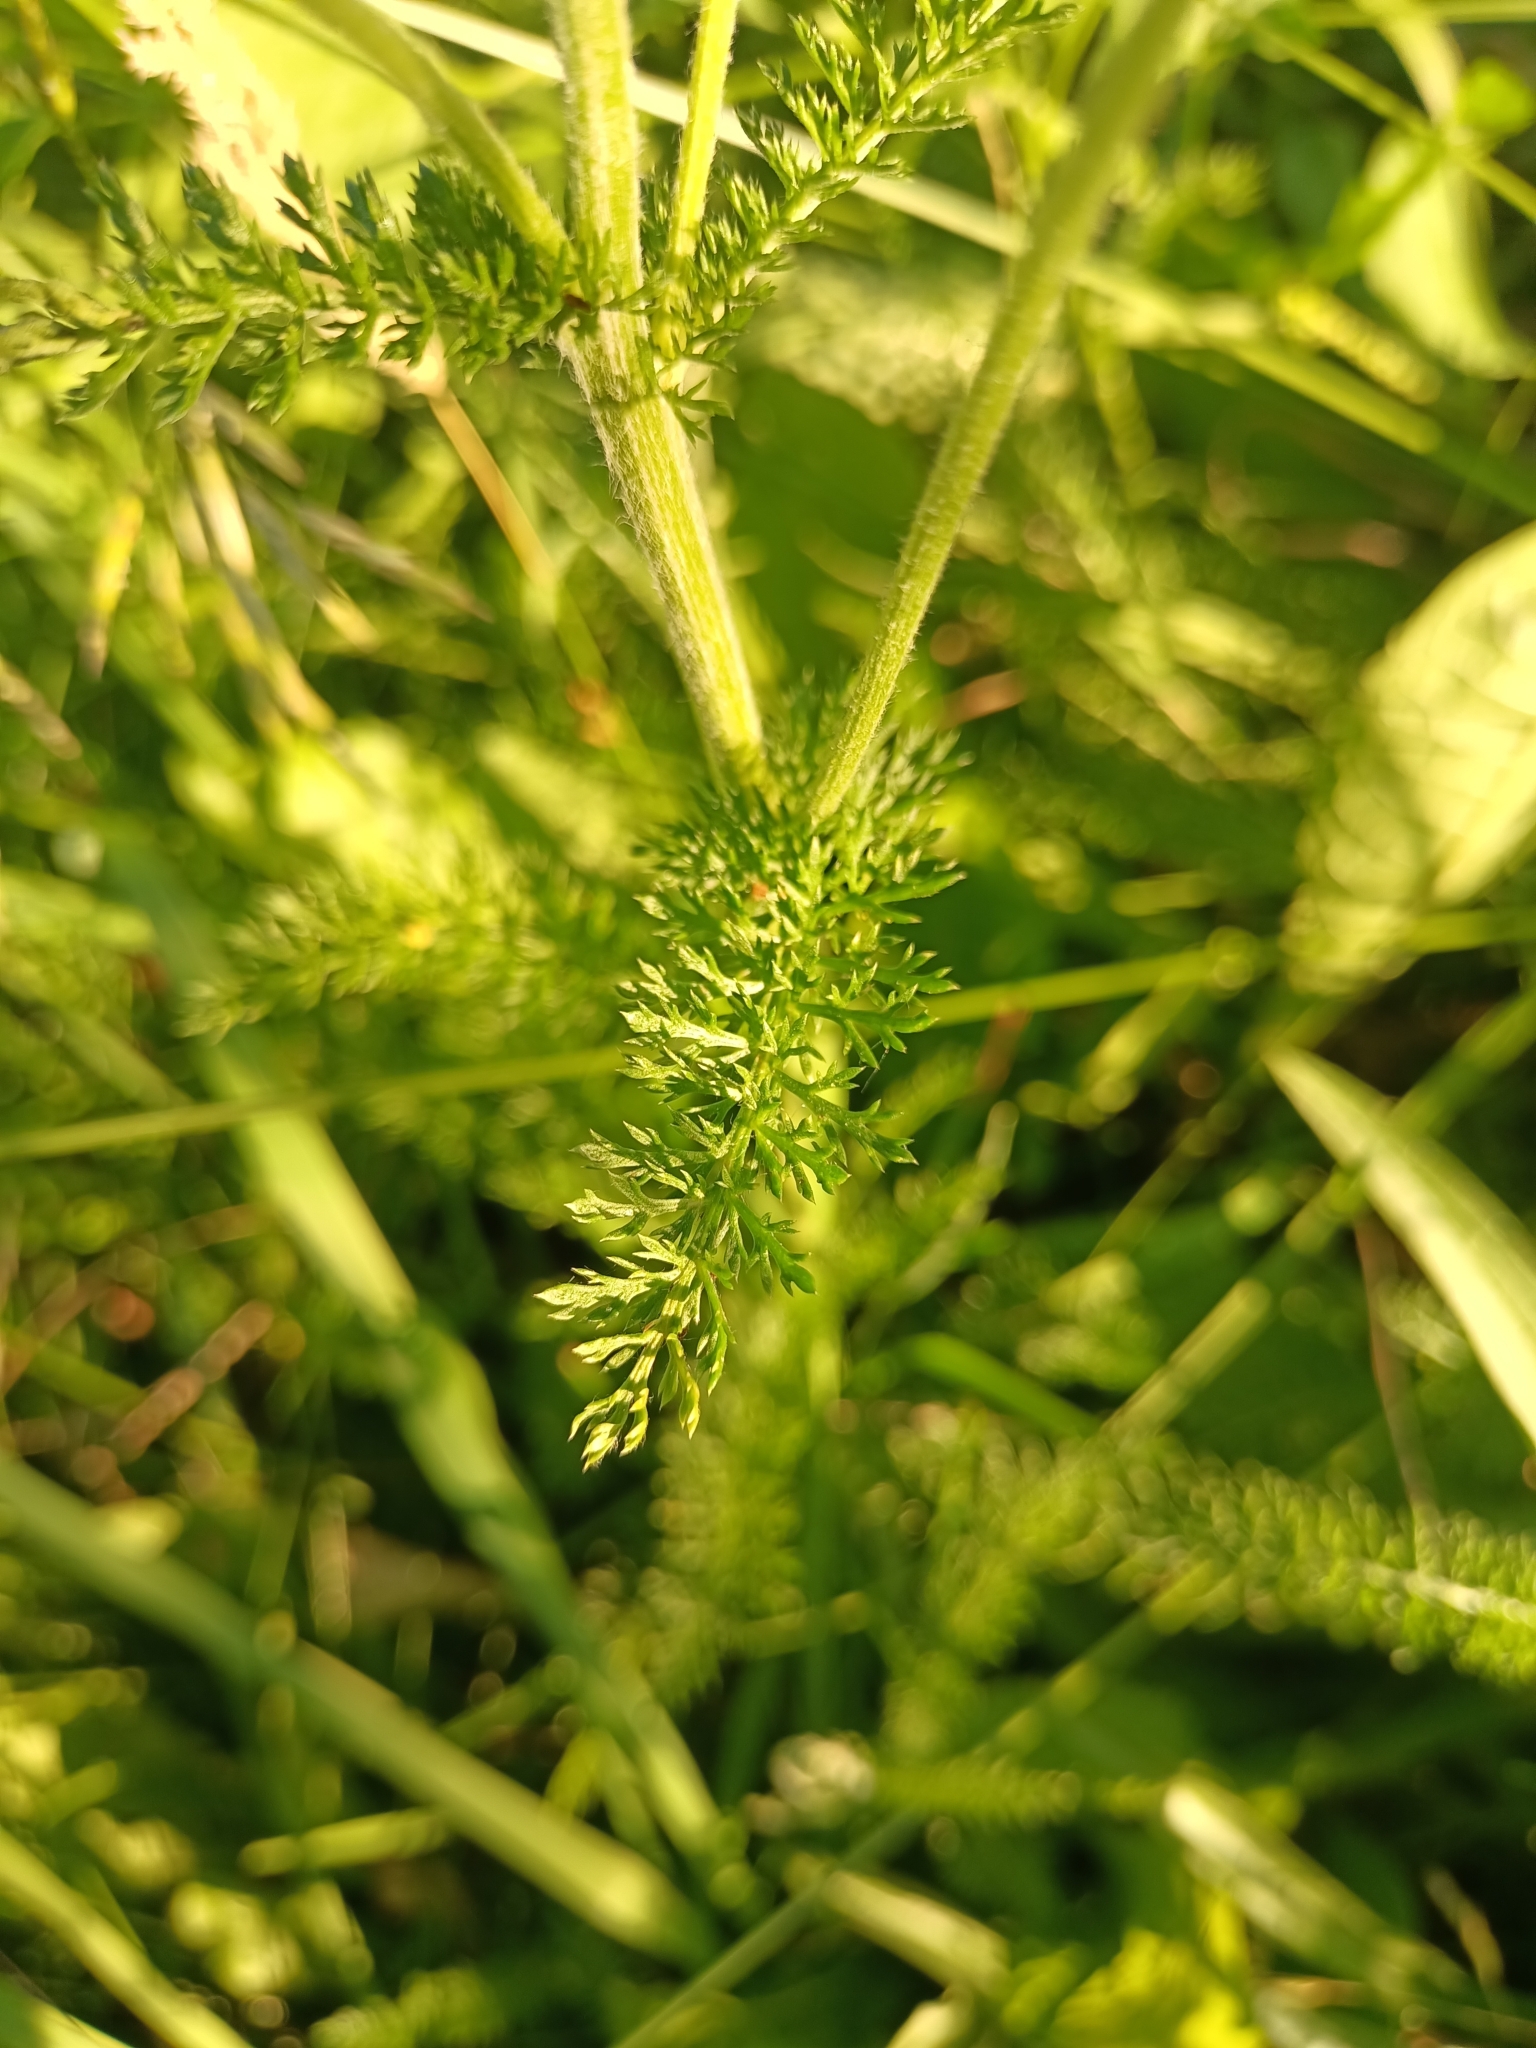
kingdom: Plantae
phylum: Tracheophyta
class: Magnoliopsida
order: Asterales
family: Asteraceae
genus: Achillea
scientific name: Achillea millefolium
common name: Yarrow
